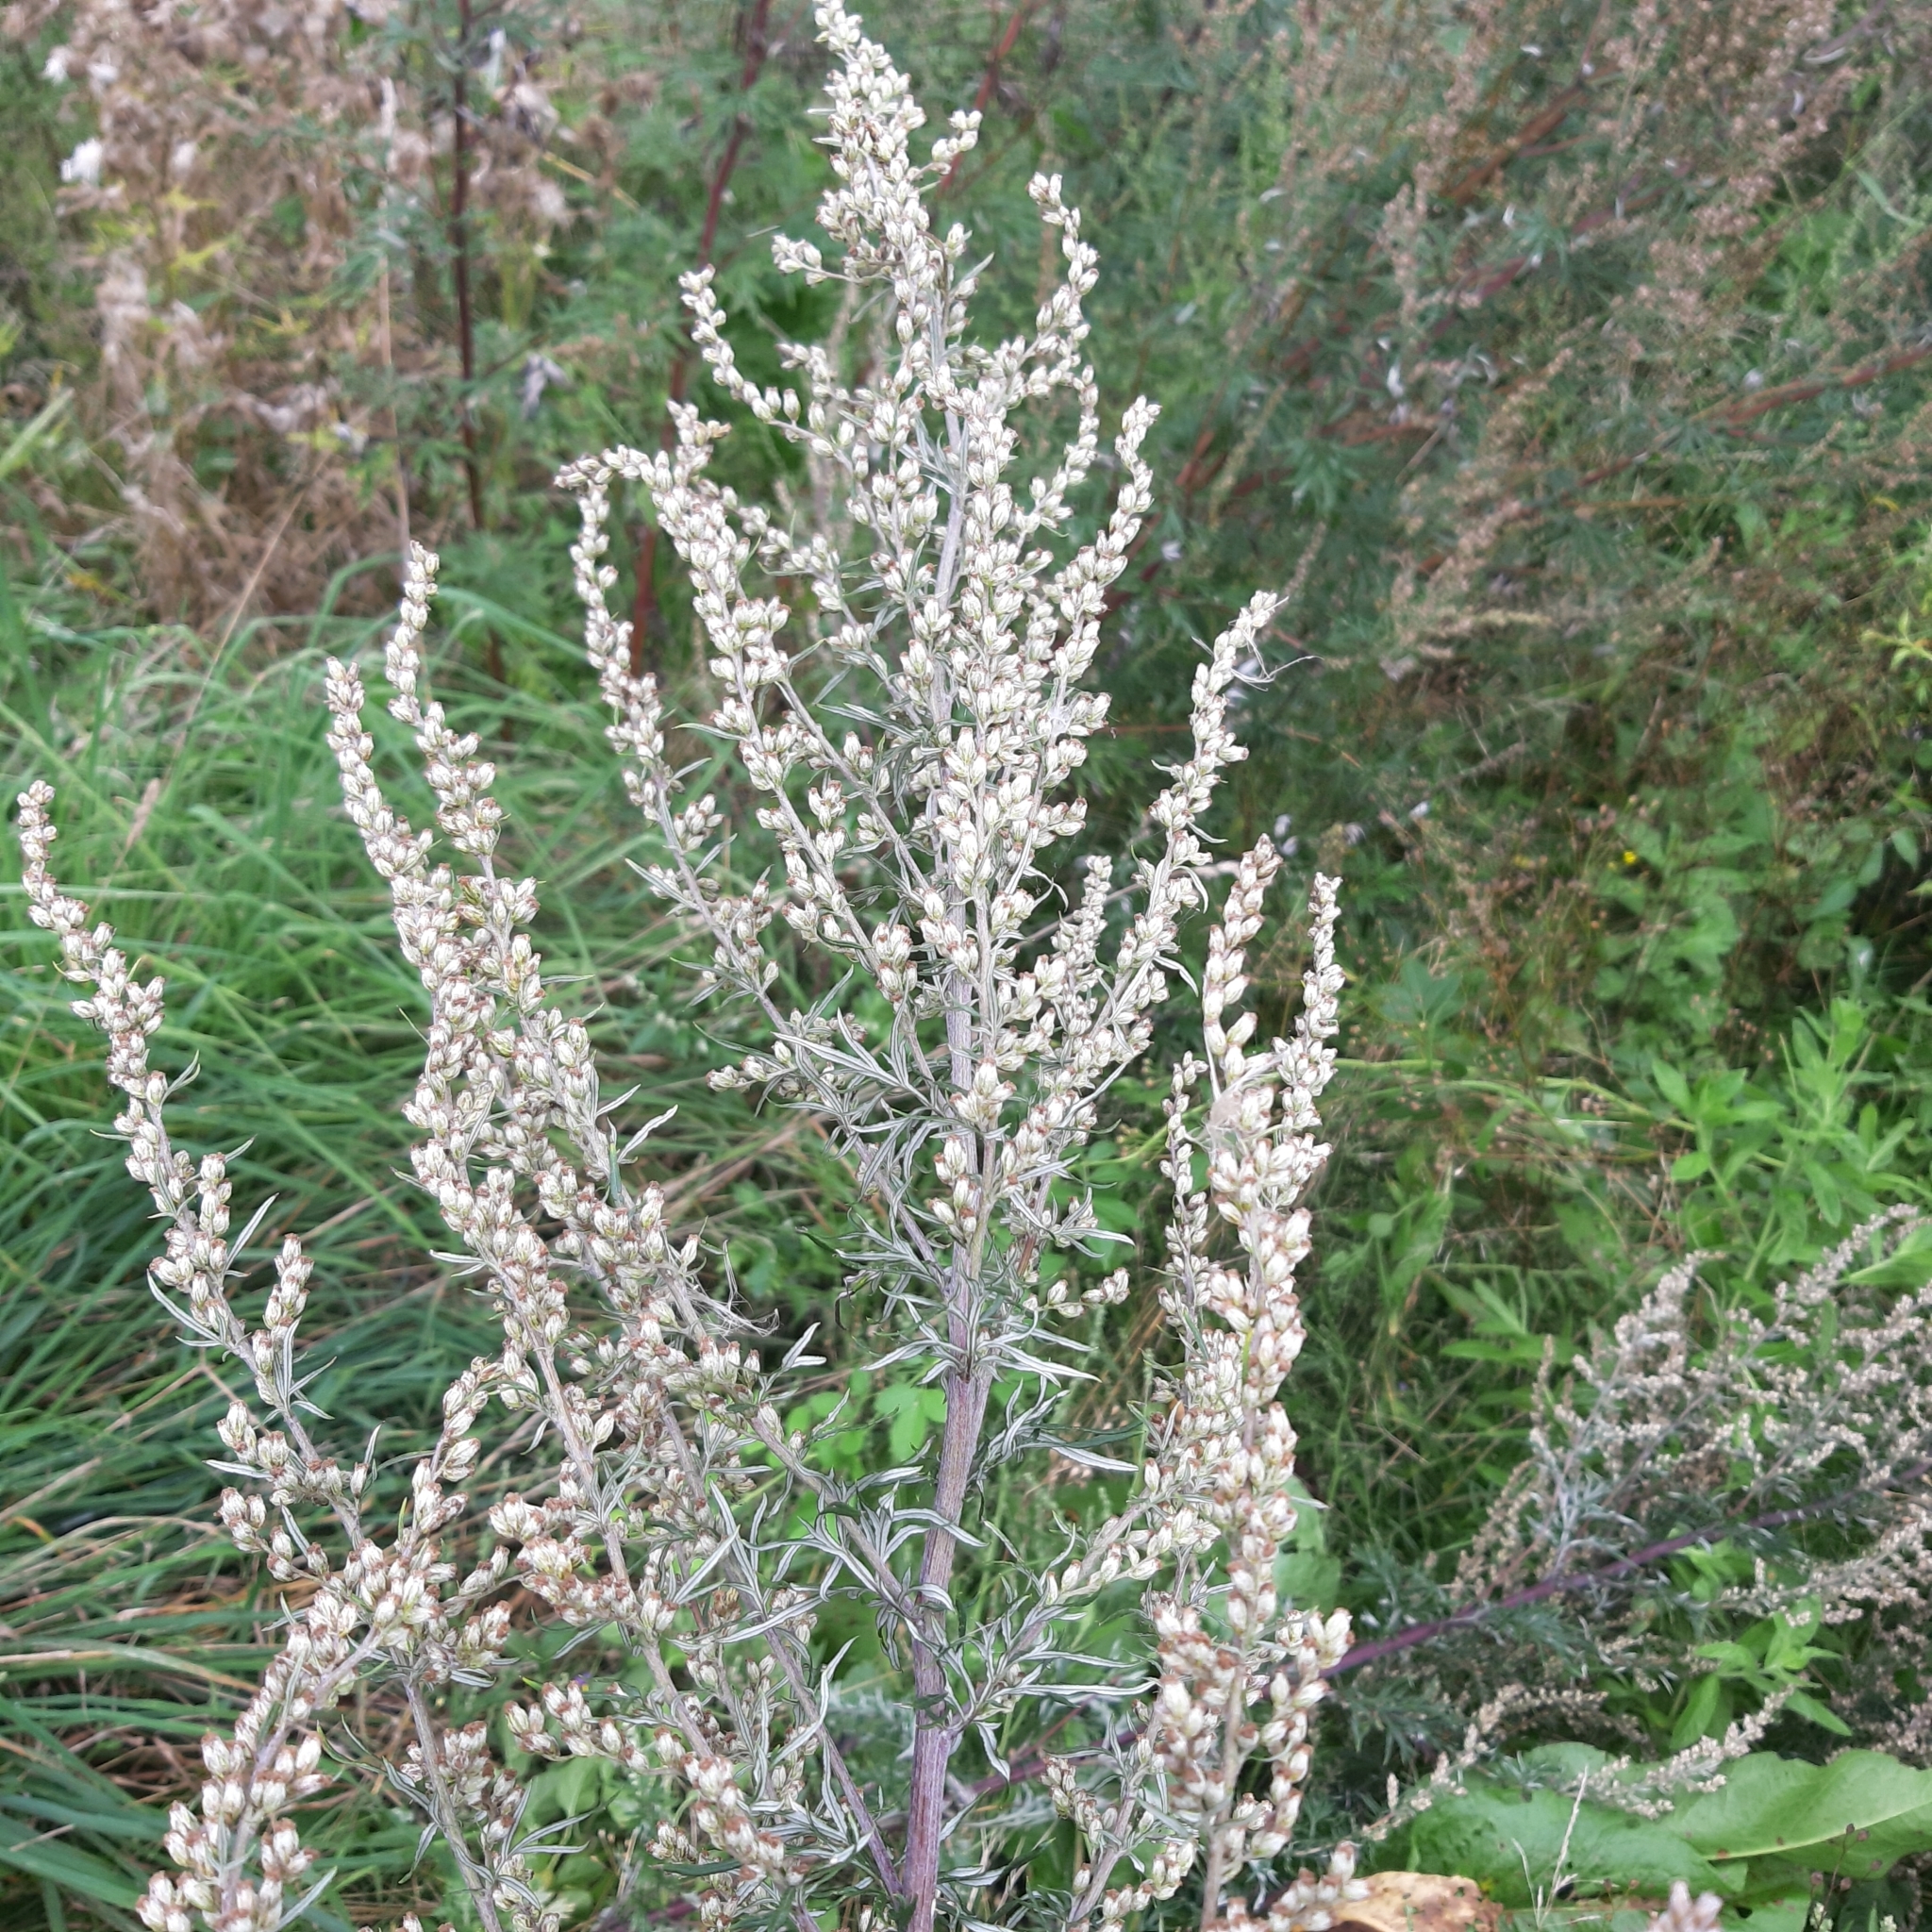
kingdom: Plantae
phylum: Tracheophyta
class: Magnoliopsida
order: Asterales
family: Asteraceae
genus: Artemisia
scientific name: Artemisia vulgaris
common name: Mugwort
